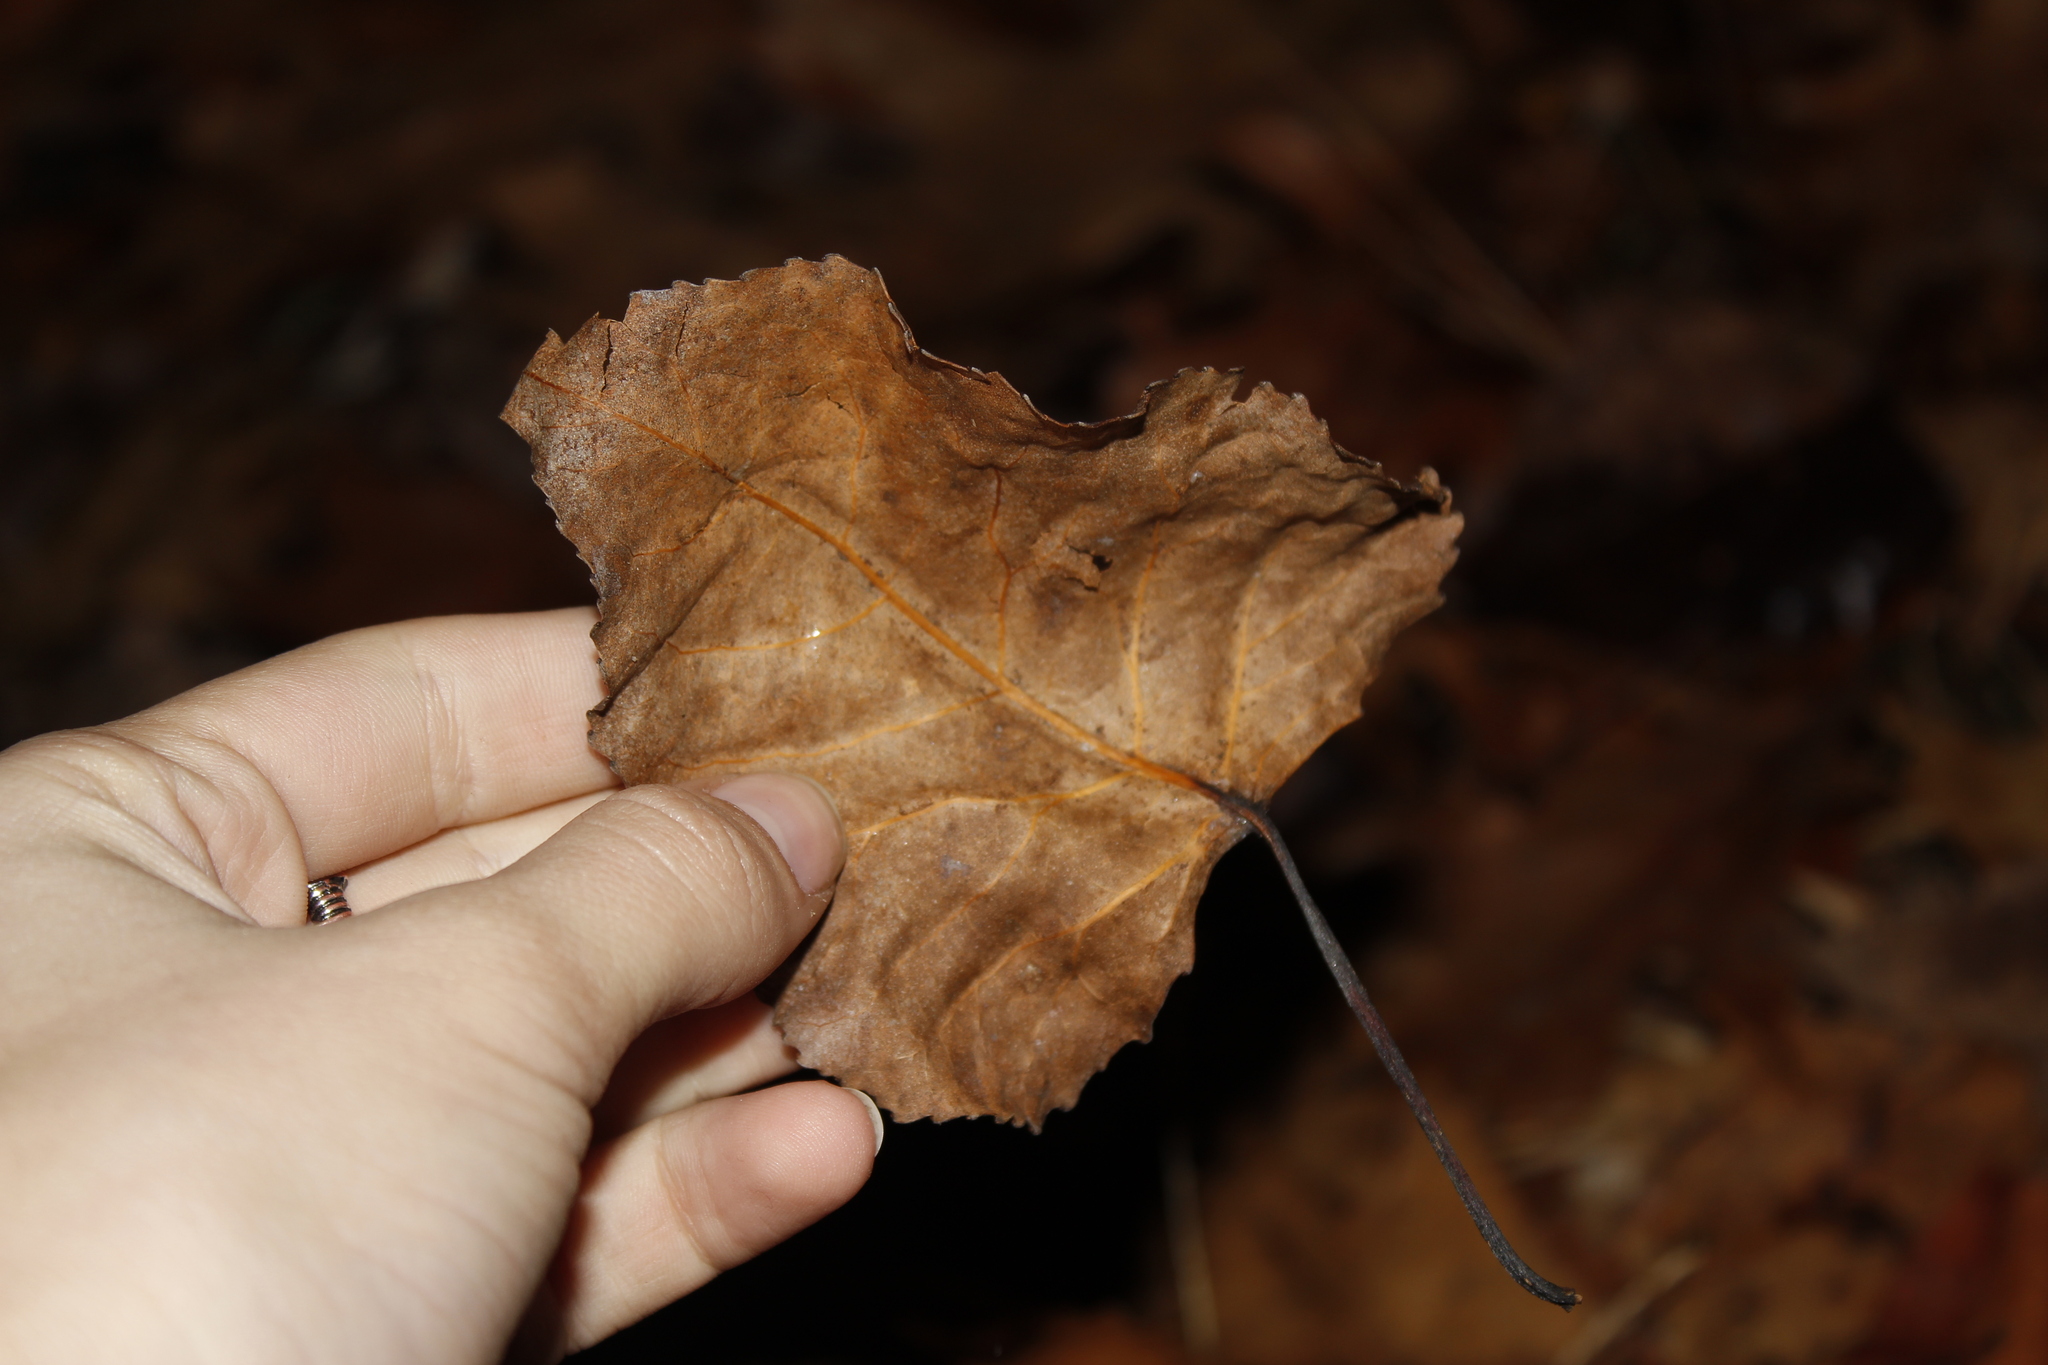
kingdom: Plantae
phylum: Tracheophyta
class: Magnoliopsida
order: Malpighiales
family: Salicaceae
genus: Populus
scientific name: Populus deltoides
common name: Eastern cottonwood
